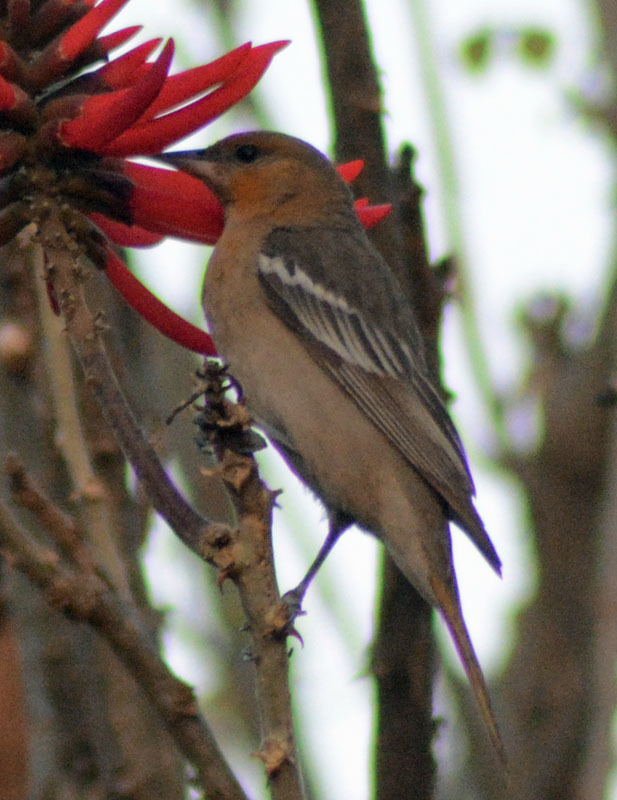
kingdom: Animalia
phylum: Chordata
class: Aves
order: Passeriformes
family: Icteridae
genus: Icterus
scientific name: Icterus bullockii
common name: Bullock's oriole
